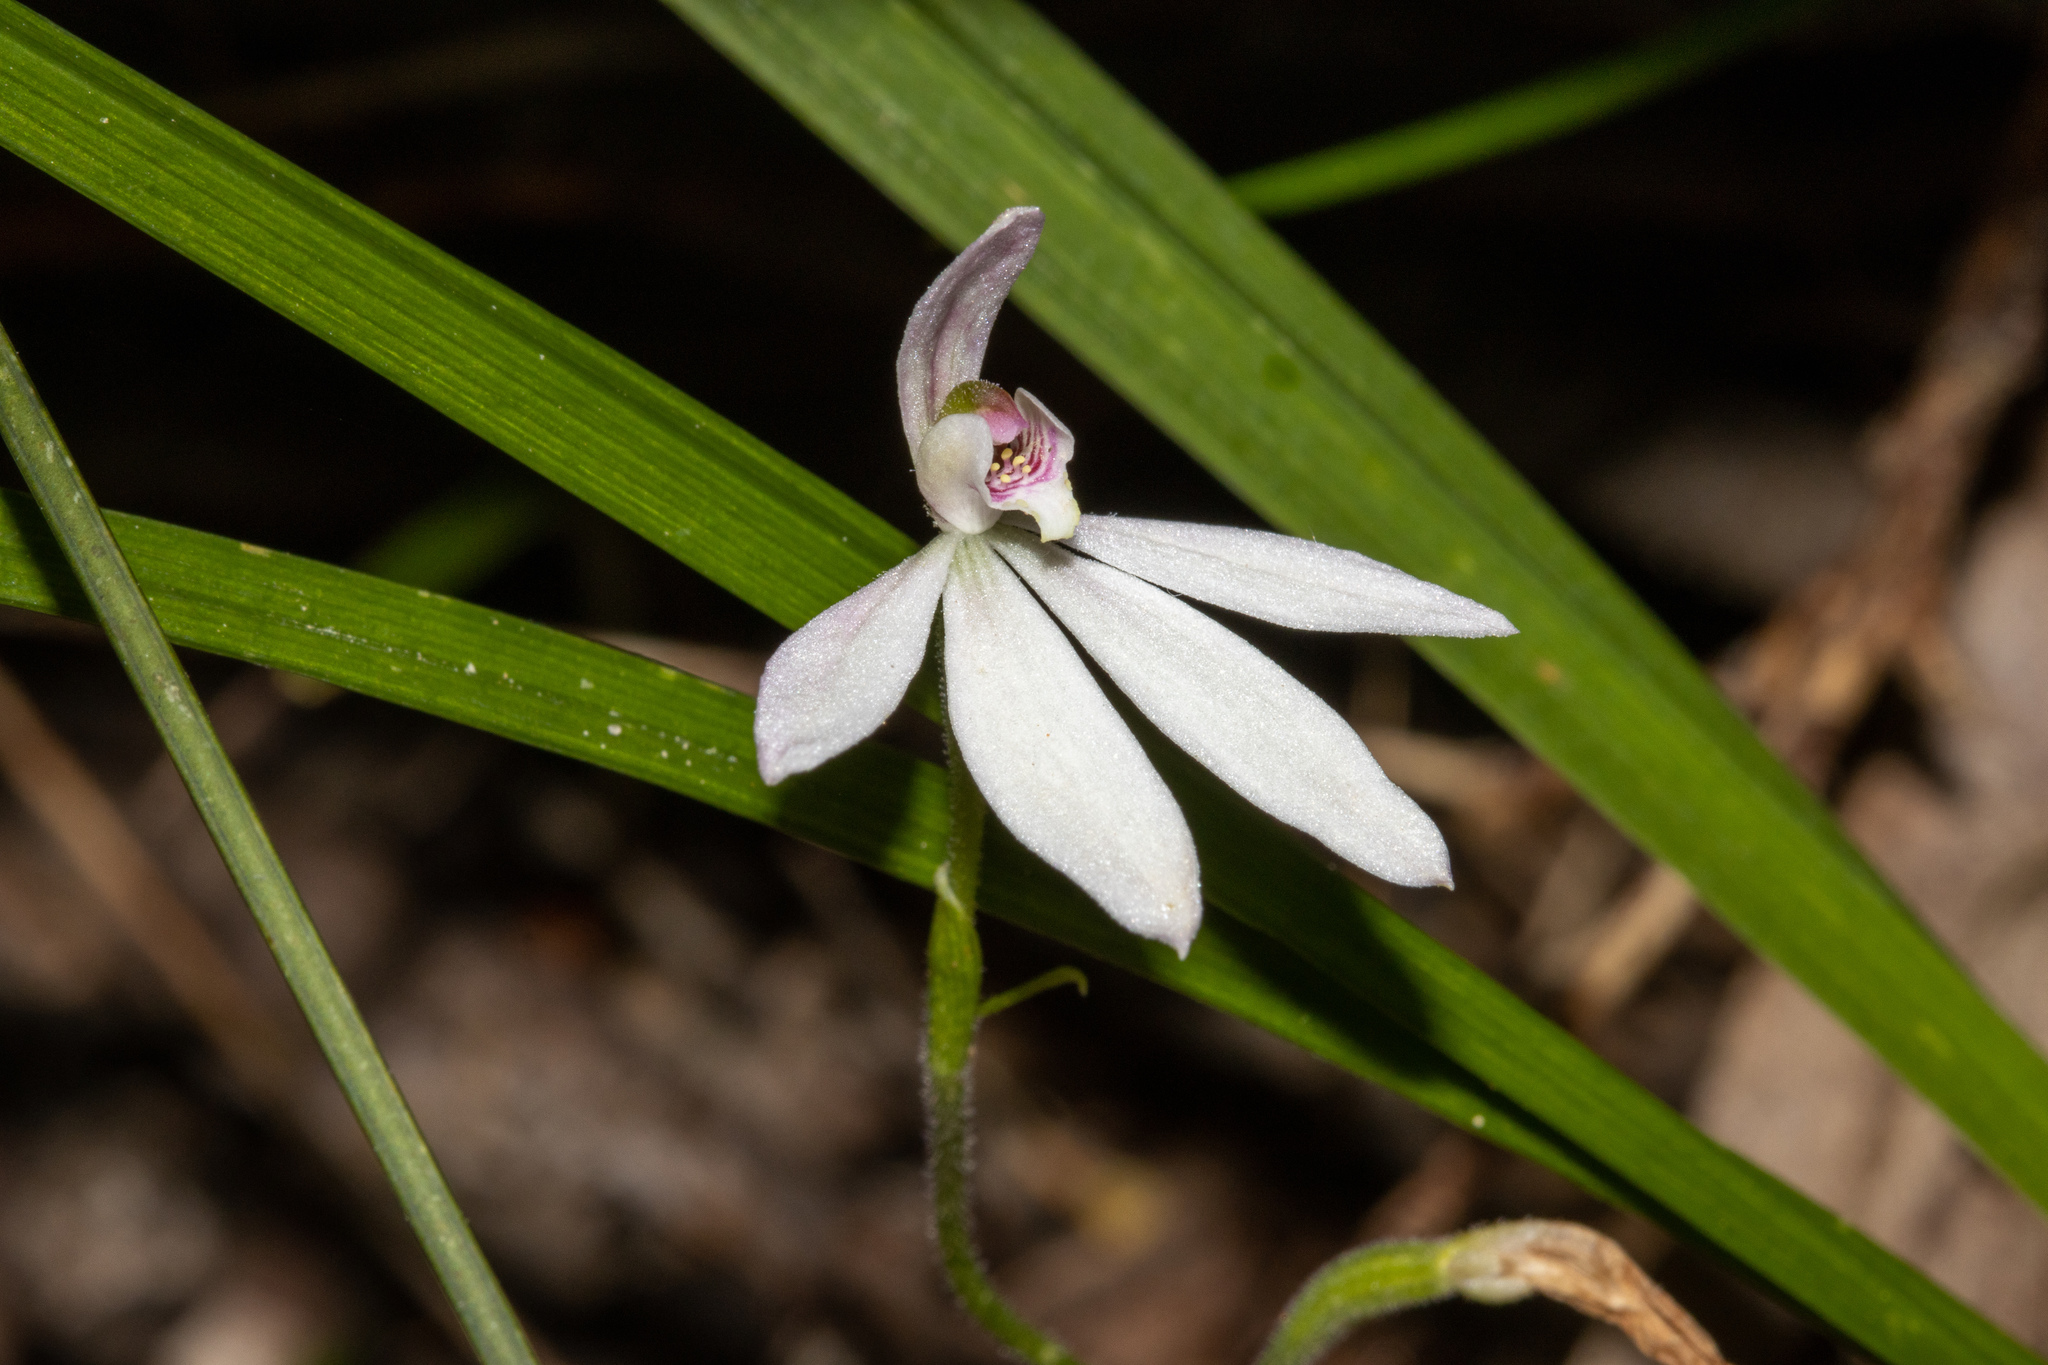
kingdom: Plantae
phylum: Tracheophyta
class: Liliopsida
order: Asparagales
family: Orchidaceae
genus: Caladenia
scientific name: Caladenia carnea
